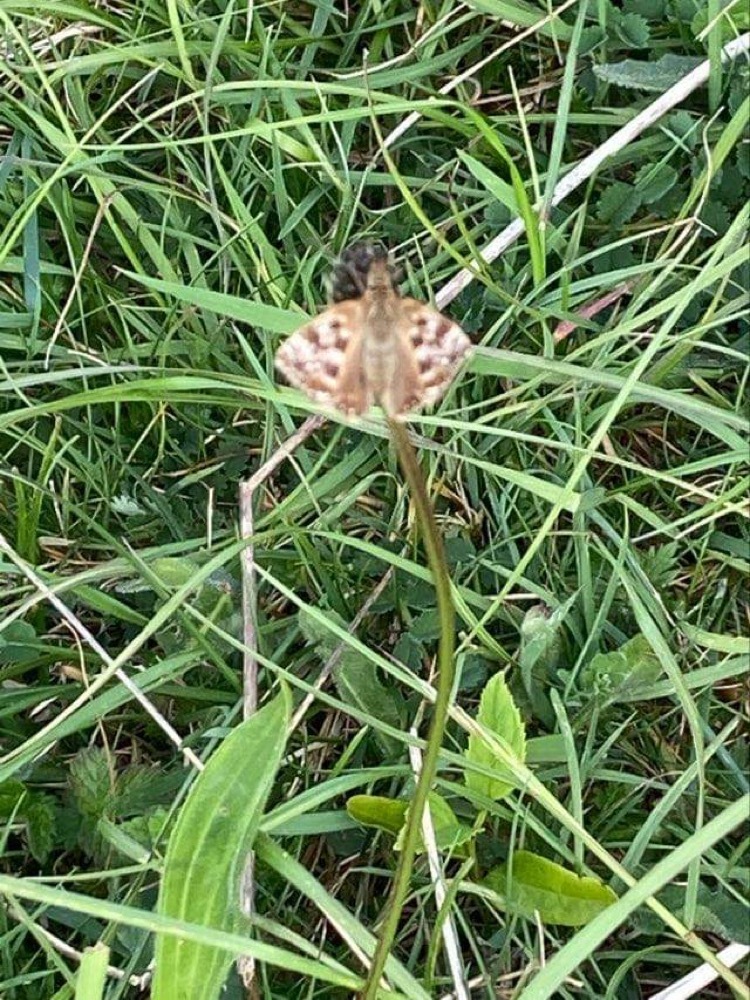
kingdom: Animalia
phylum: Arthropoda
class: Insecta
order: Lepidoptera
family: Hesperiidae
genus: Erynnis
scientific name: Erynnis tages
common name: Dingy skipper
